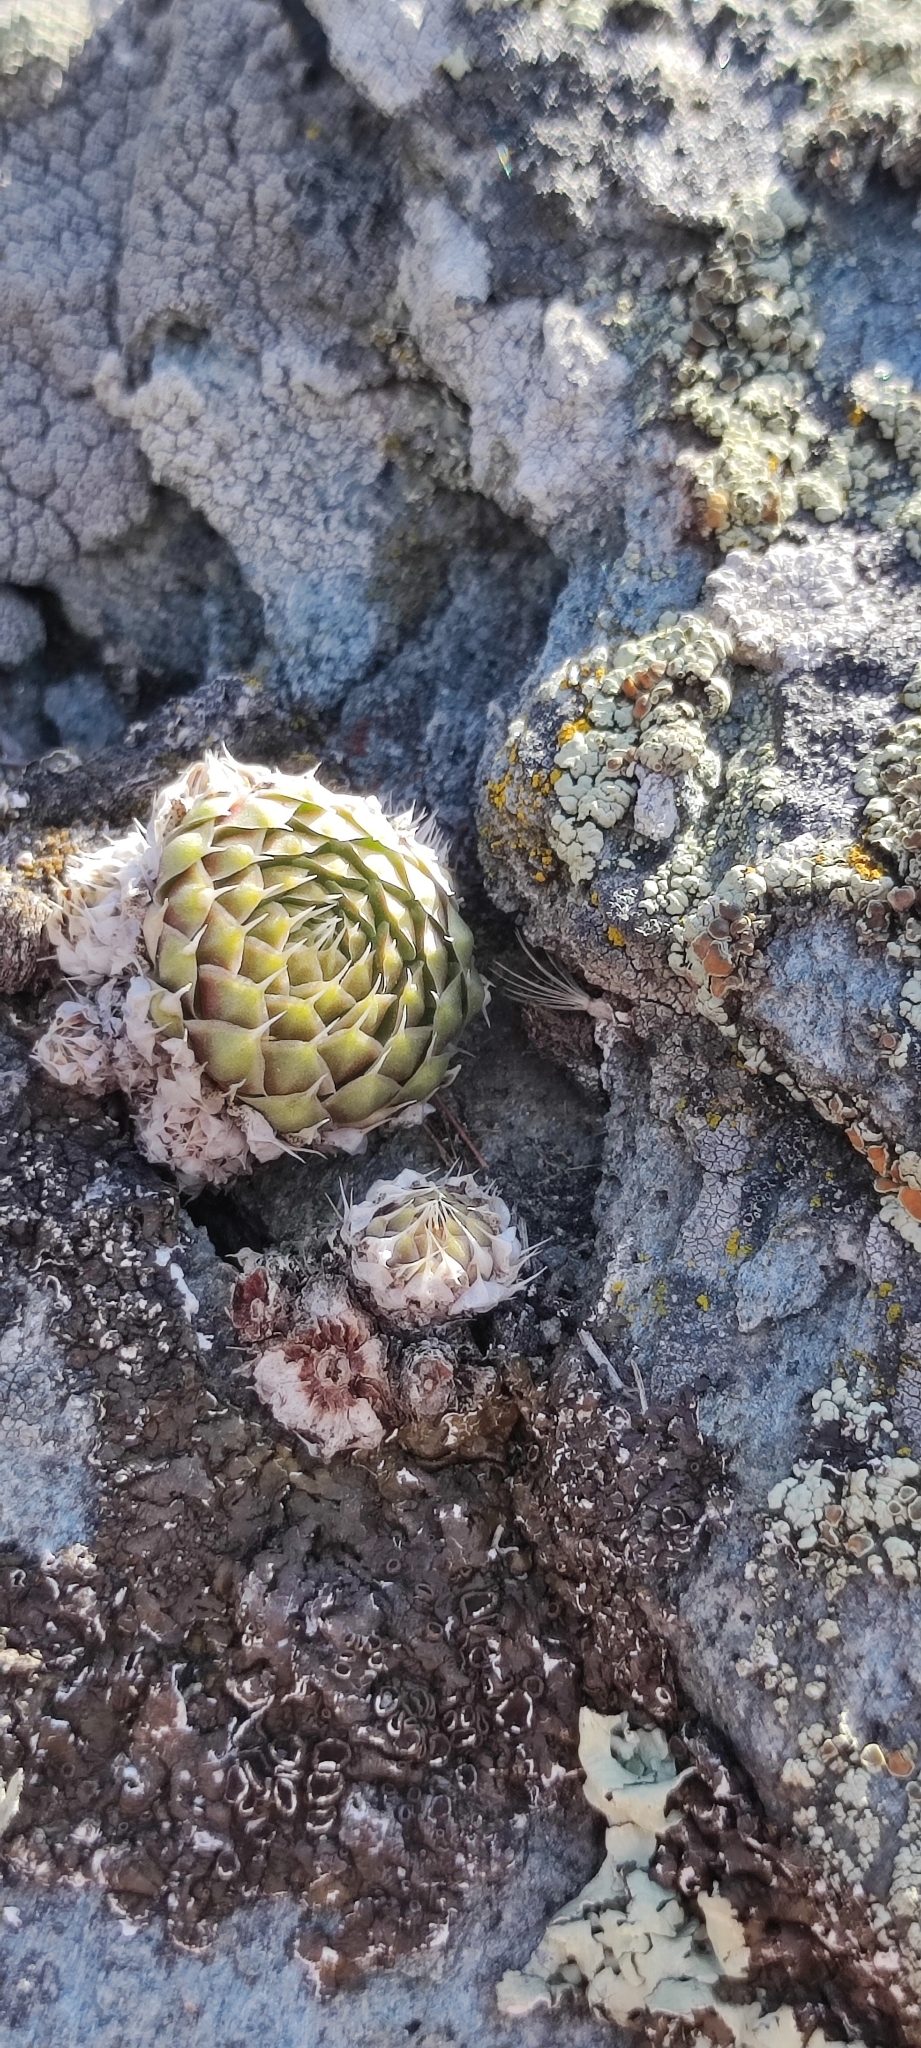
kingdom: Plantae
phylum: Tracheophyta
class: Magnoliopsida
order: Saxifragales
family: Crassulaceae
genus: Orostachys
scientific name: Orostachys spinosa
